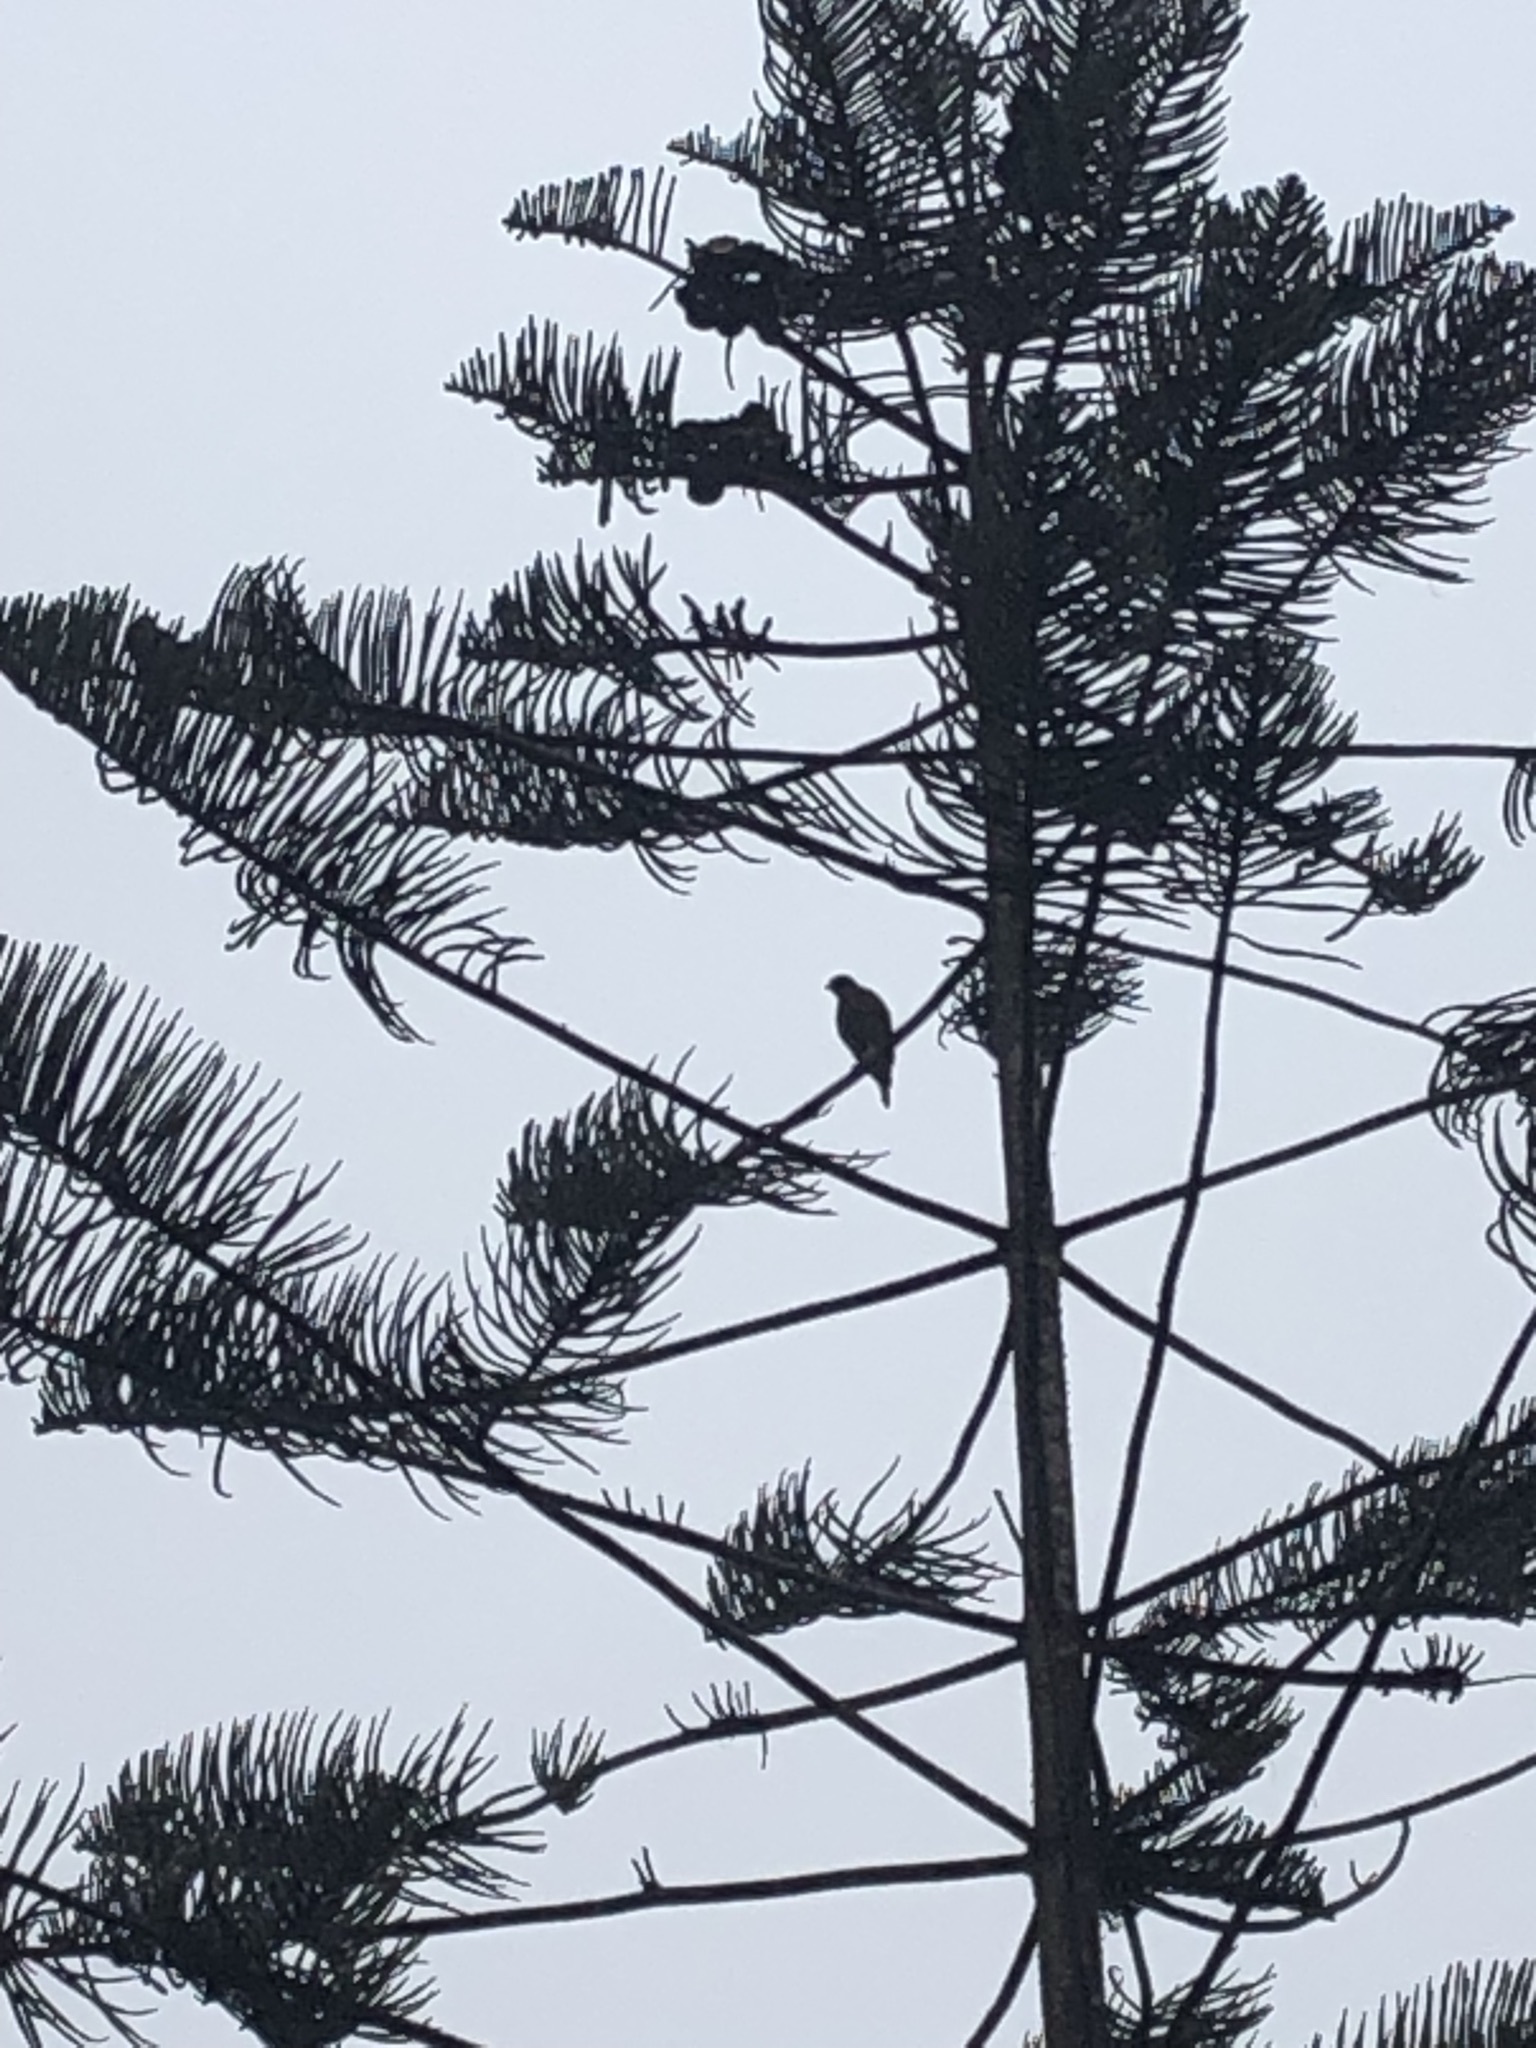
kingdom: Animalia
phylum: Chordata
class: Aves
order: Accipitriformes
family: Accipitridae
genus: Parabuteo
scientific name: Parabuteo unicinctus
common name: Harris's hawk
